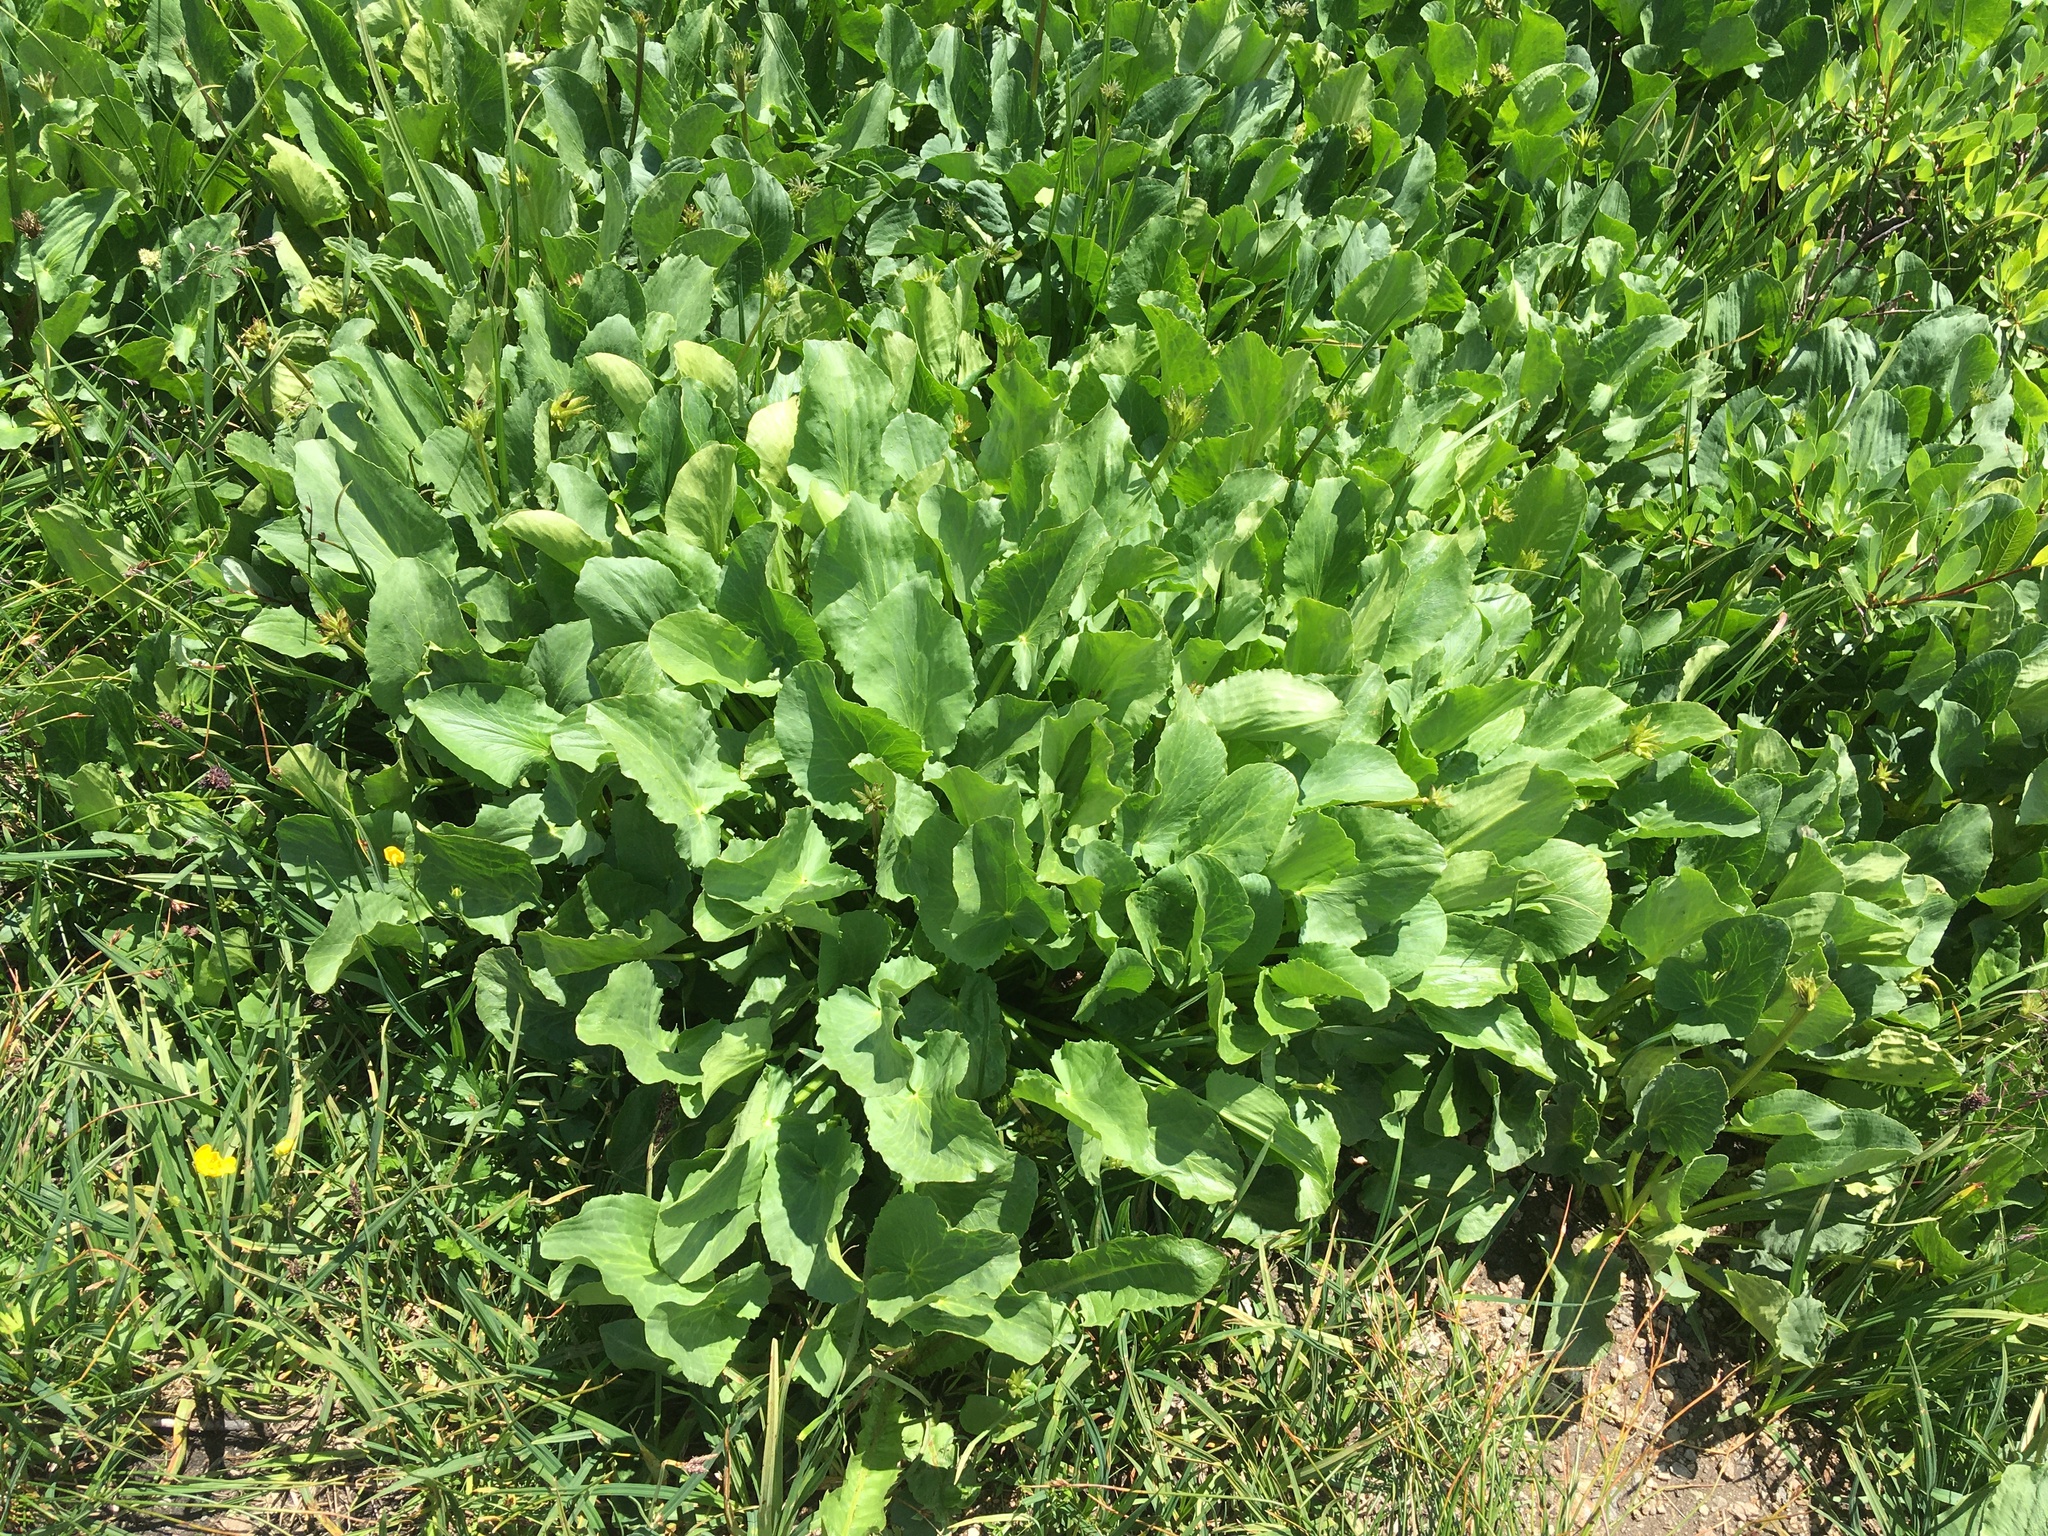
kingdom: Plantae
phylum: Tracheophyta
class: Magnoliopsida
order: Ranunculales
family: Ranunculaceae
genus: Caltha
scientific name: Caltha leptosepala
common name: Elkslip
